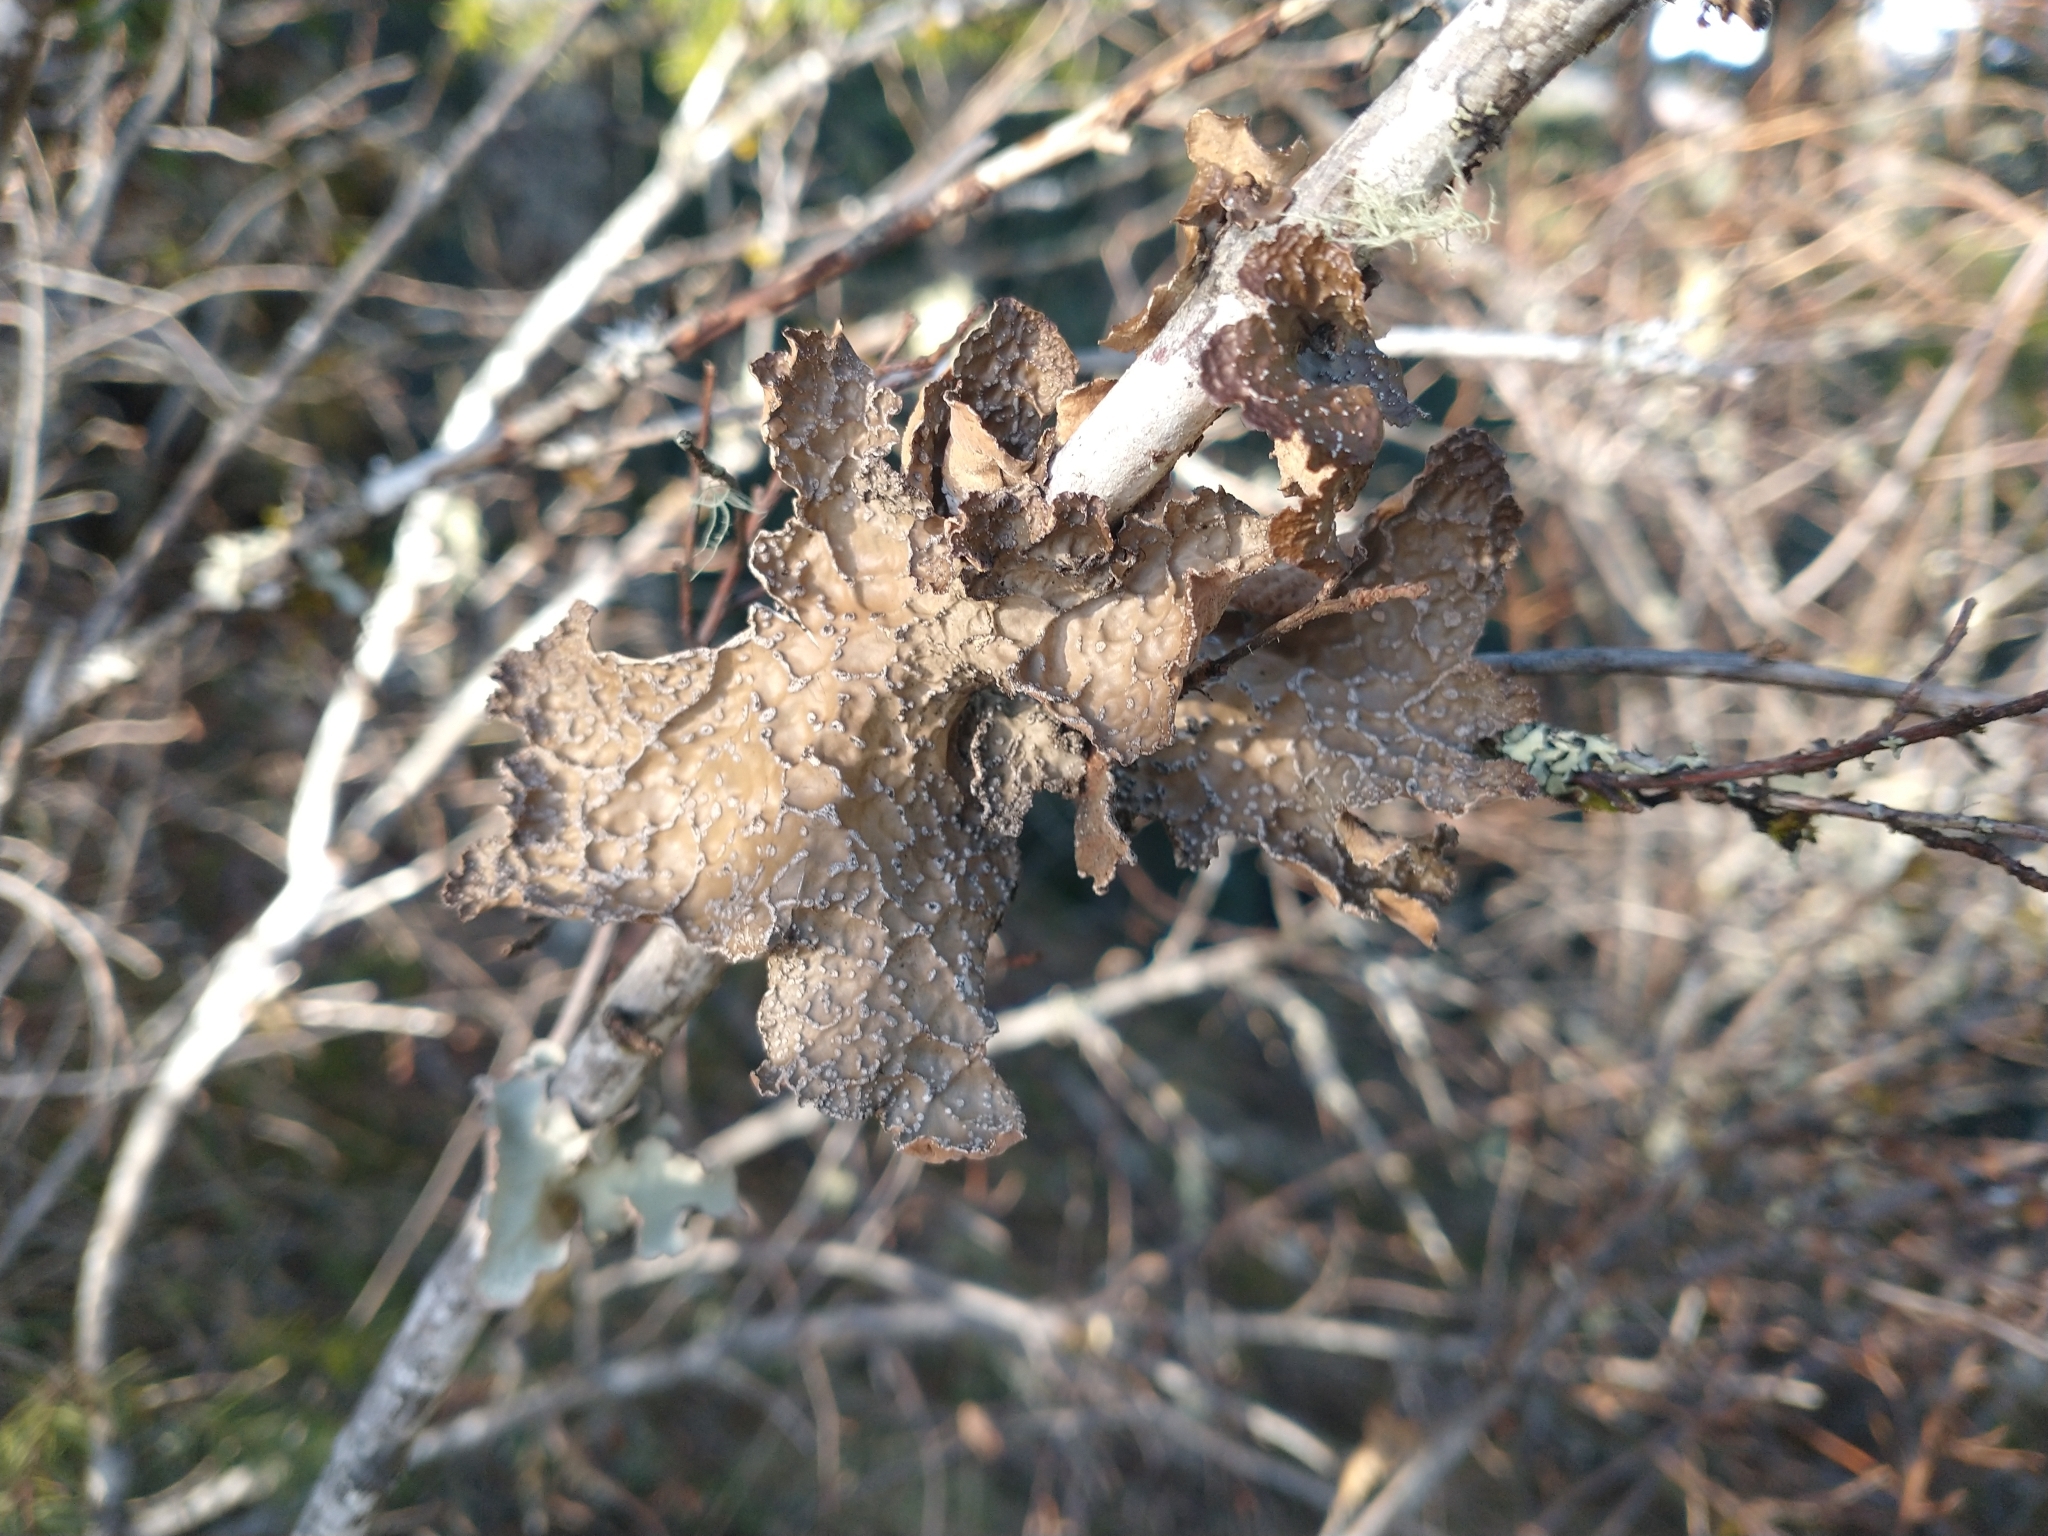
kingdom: Fungi
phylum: Ascomycota
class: Lecanoromycetes
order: Peltigerales
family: Lobariaceae
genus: Lobaria
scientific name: Lobaria anomala
